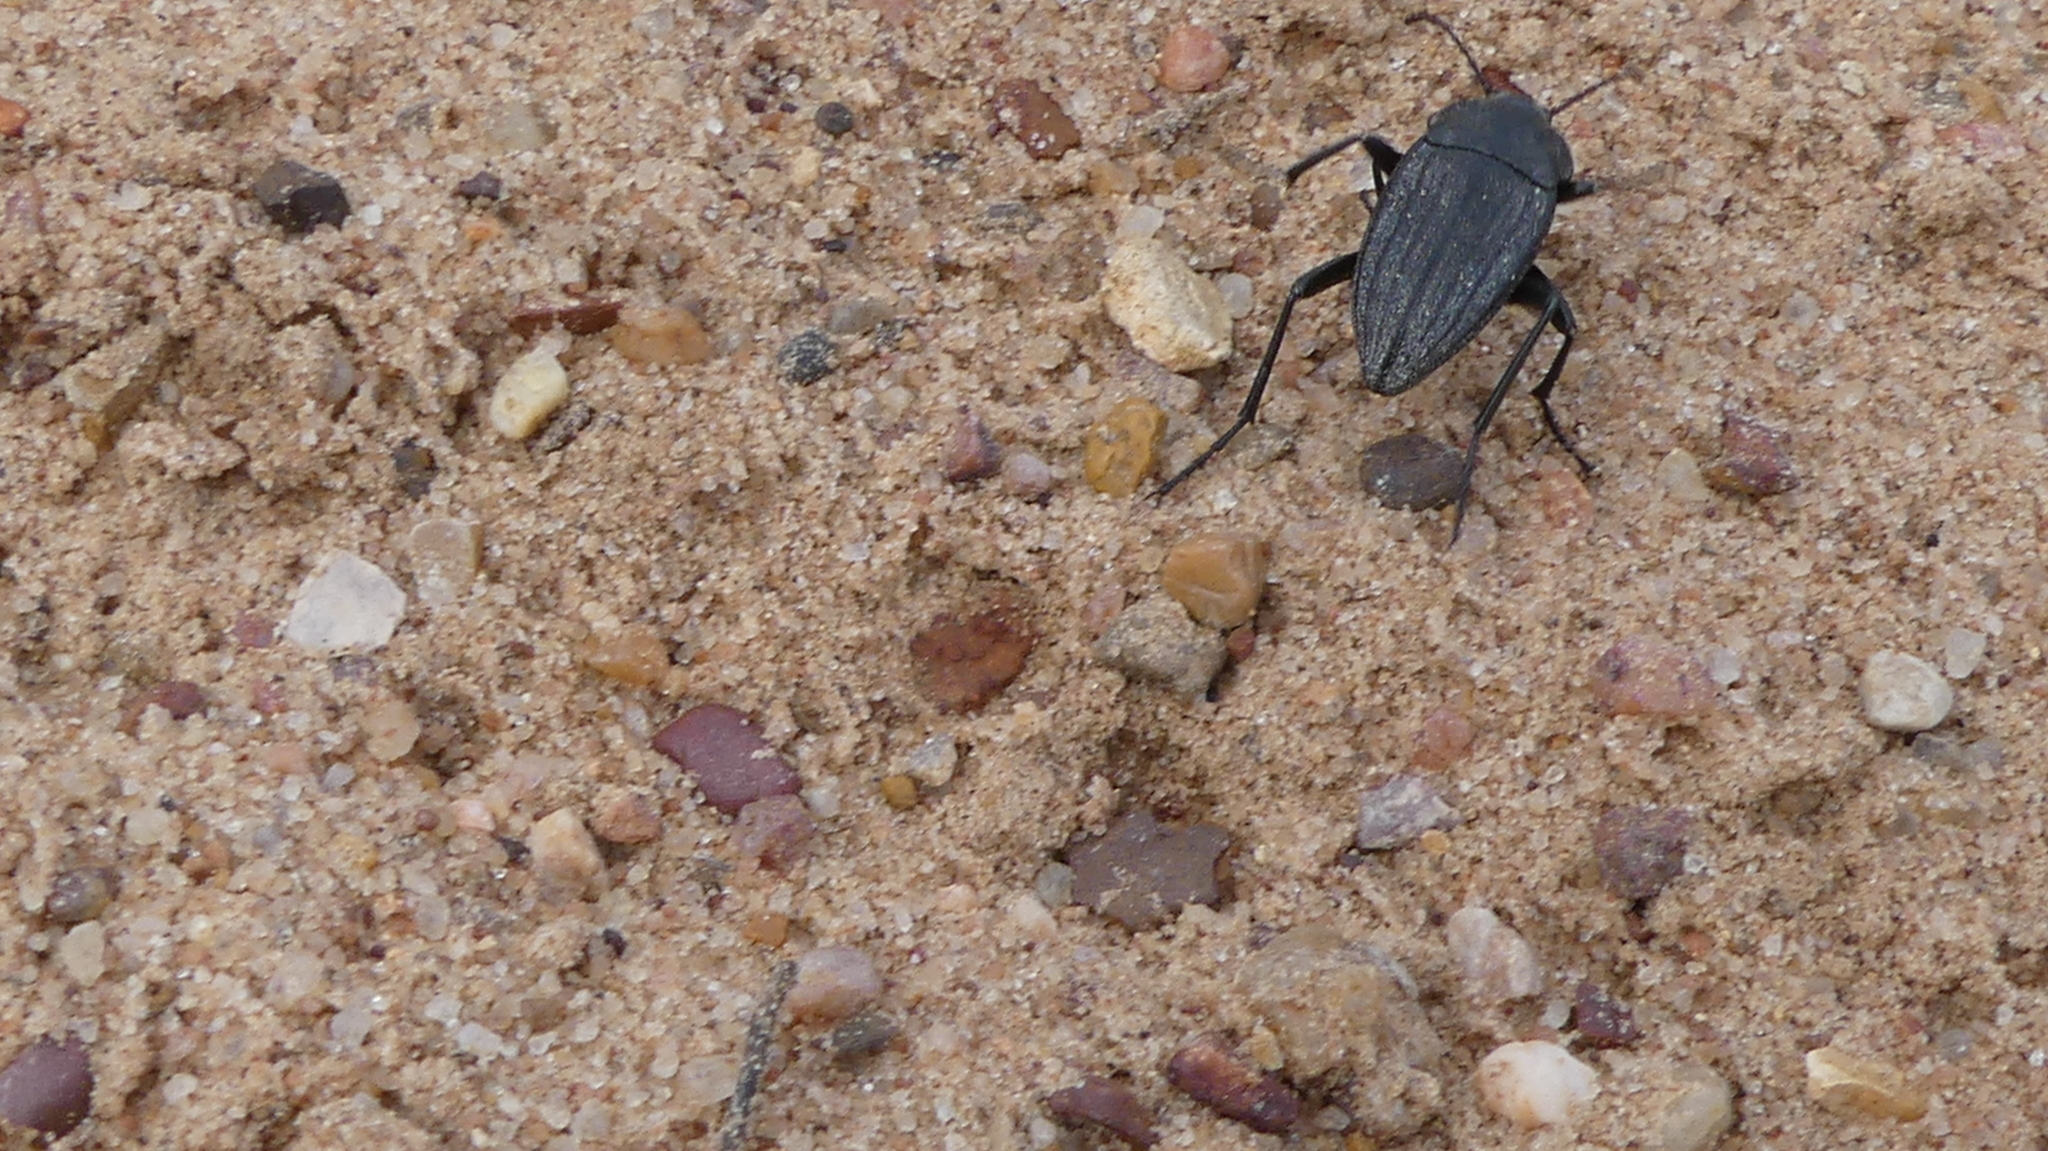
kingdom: Animalia
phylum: Arthropoda
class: Insecta
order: Coleoptera
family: Tenebrionidae
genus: Eleodes
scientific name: Eleodes tricostata
